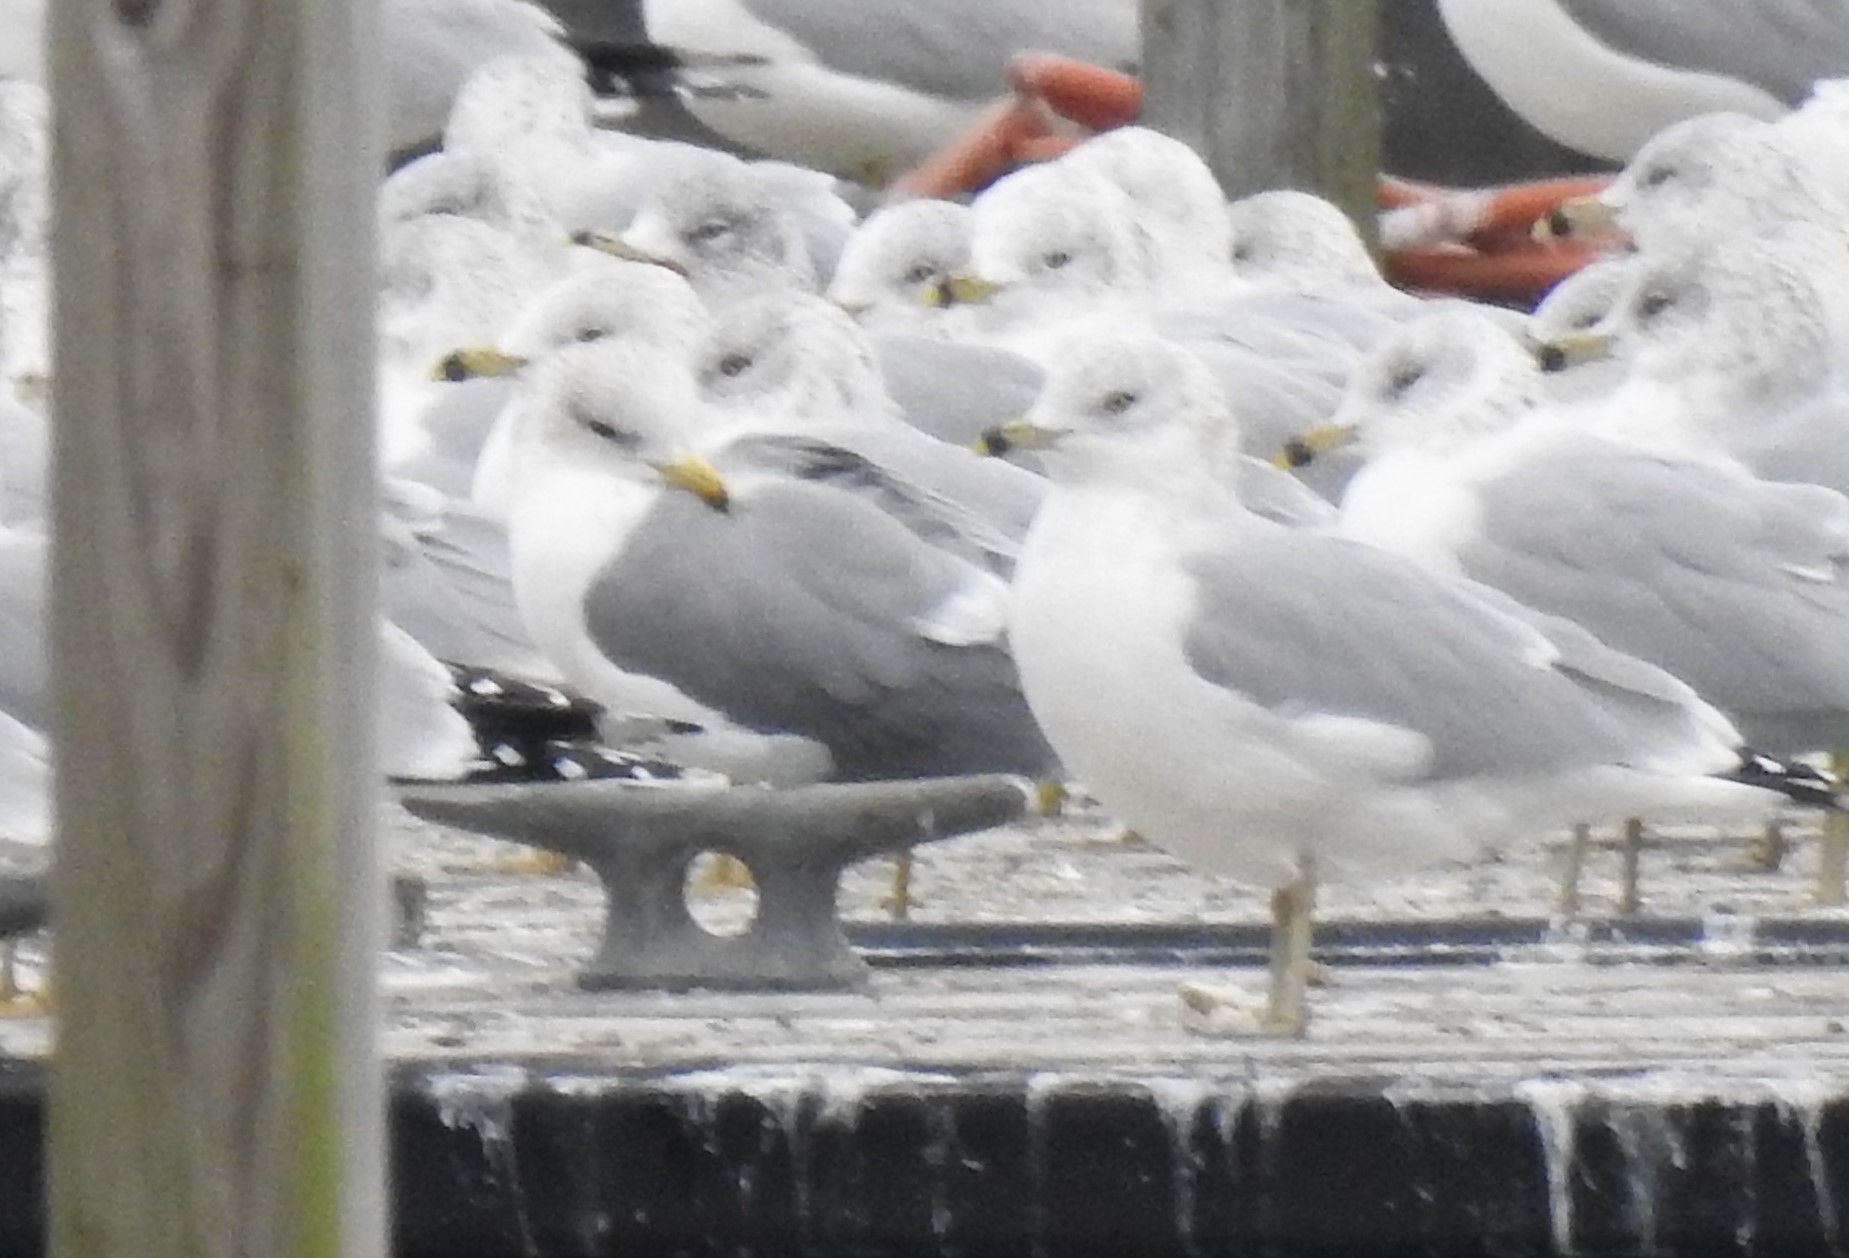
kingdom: Animalia
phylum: Chordata
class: Aves
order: Charadriiformes
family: Laridae
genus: Larus
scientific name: Larus californicus
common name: California gull
